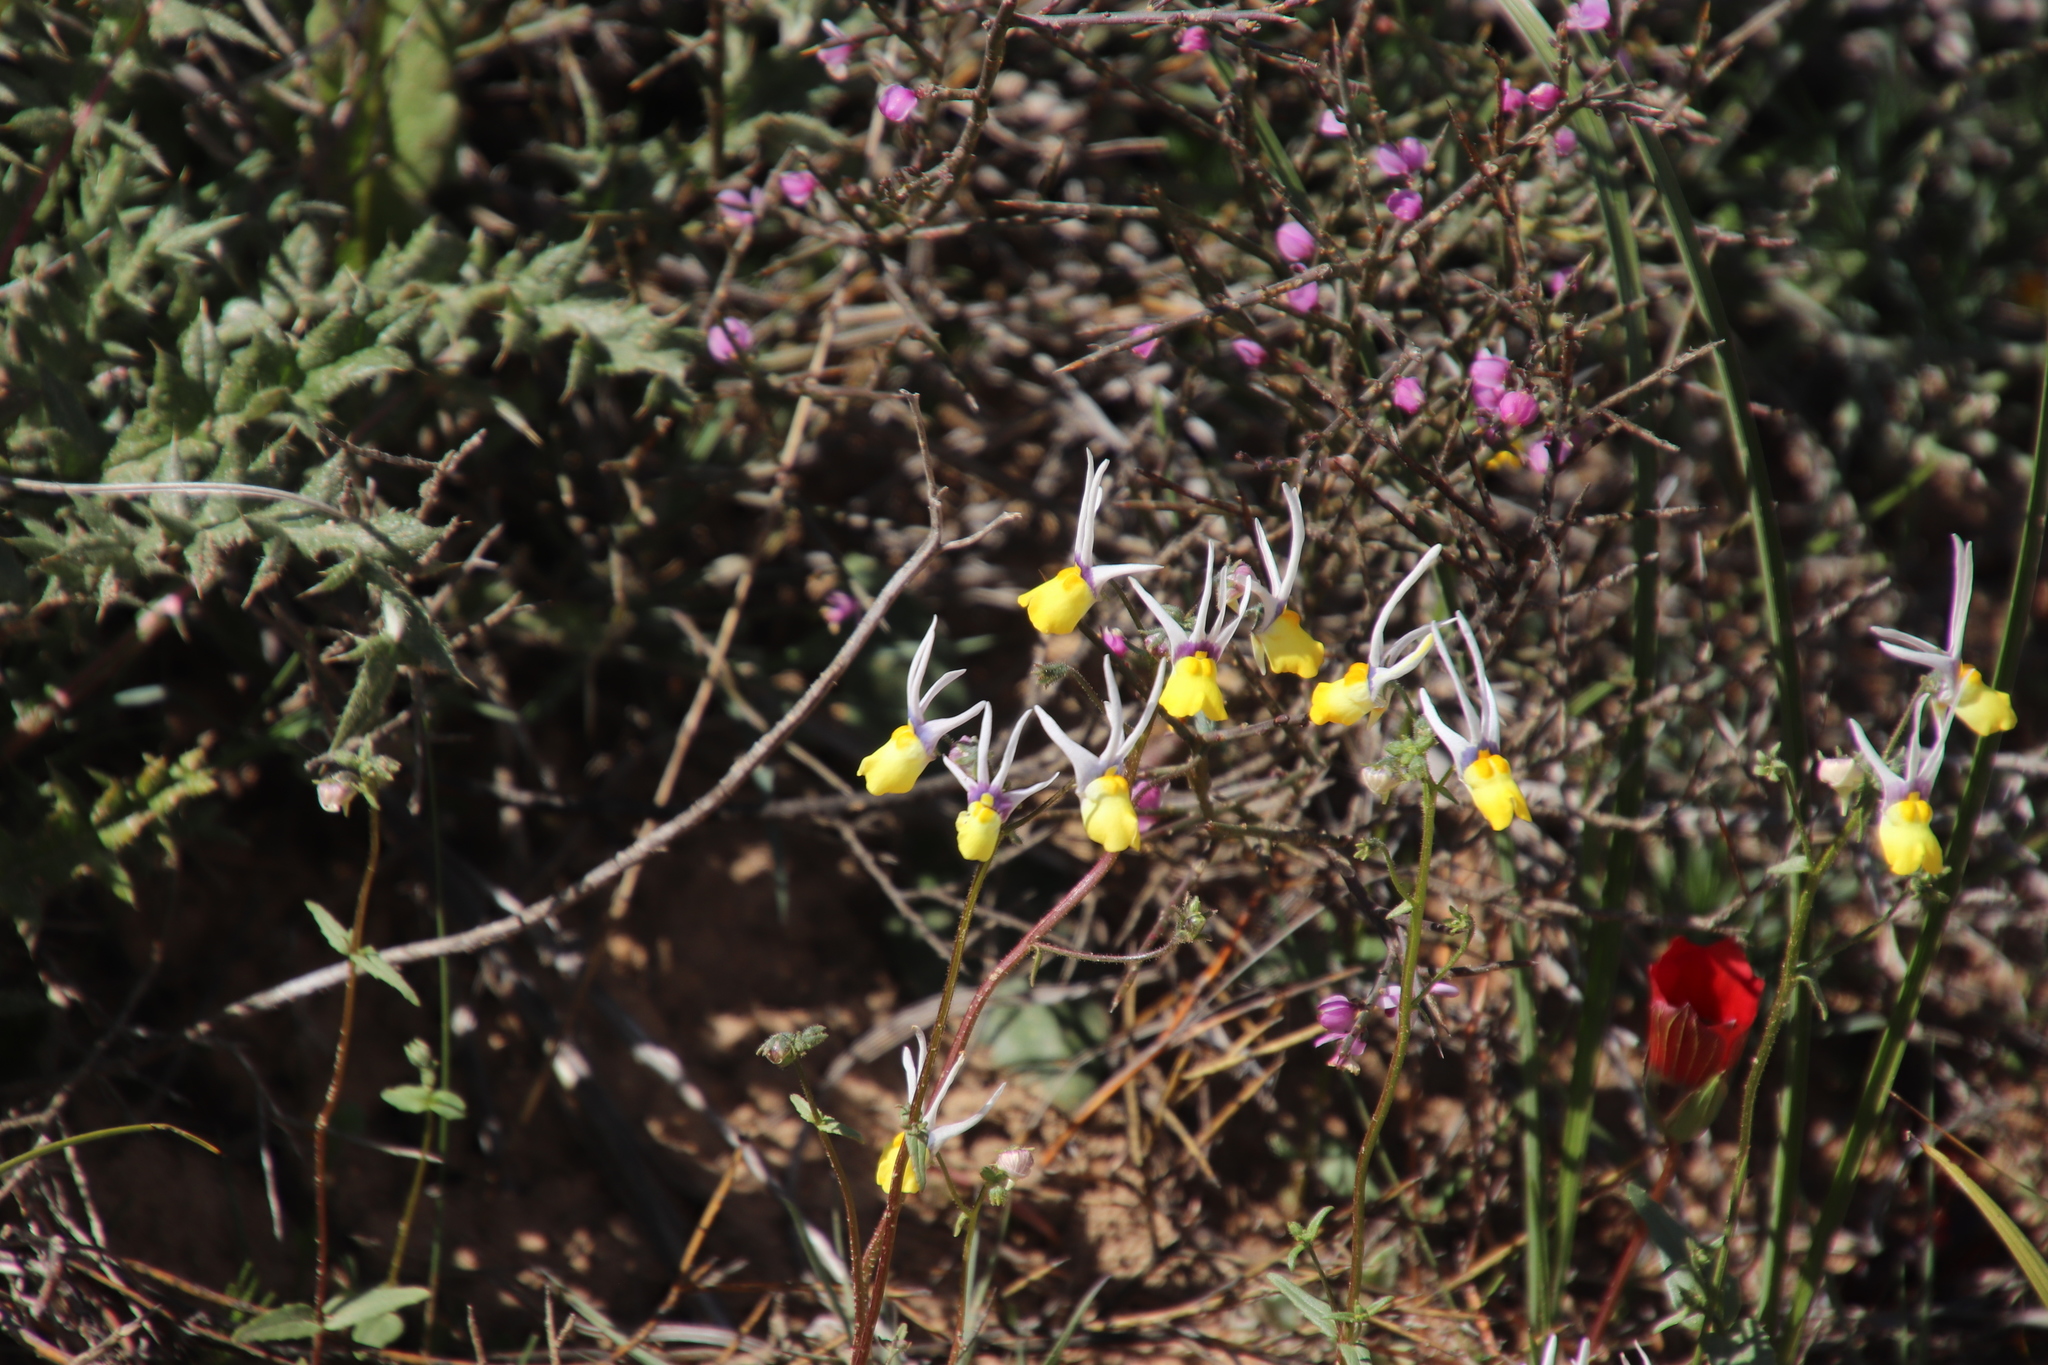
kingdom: Plantae
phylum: Tracheophyta
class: Magnoliopsida
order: Lamiales
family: Scrophulariaceae
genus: Nemesia
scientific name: Nemesia cheiranthus
